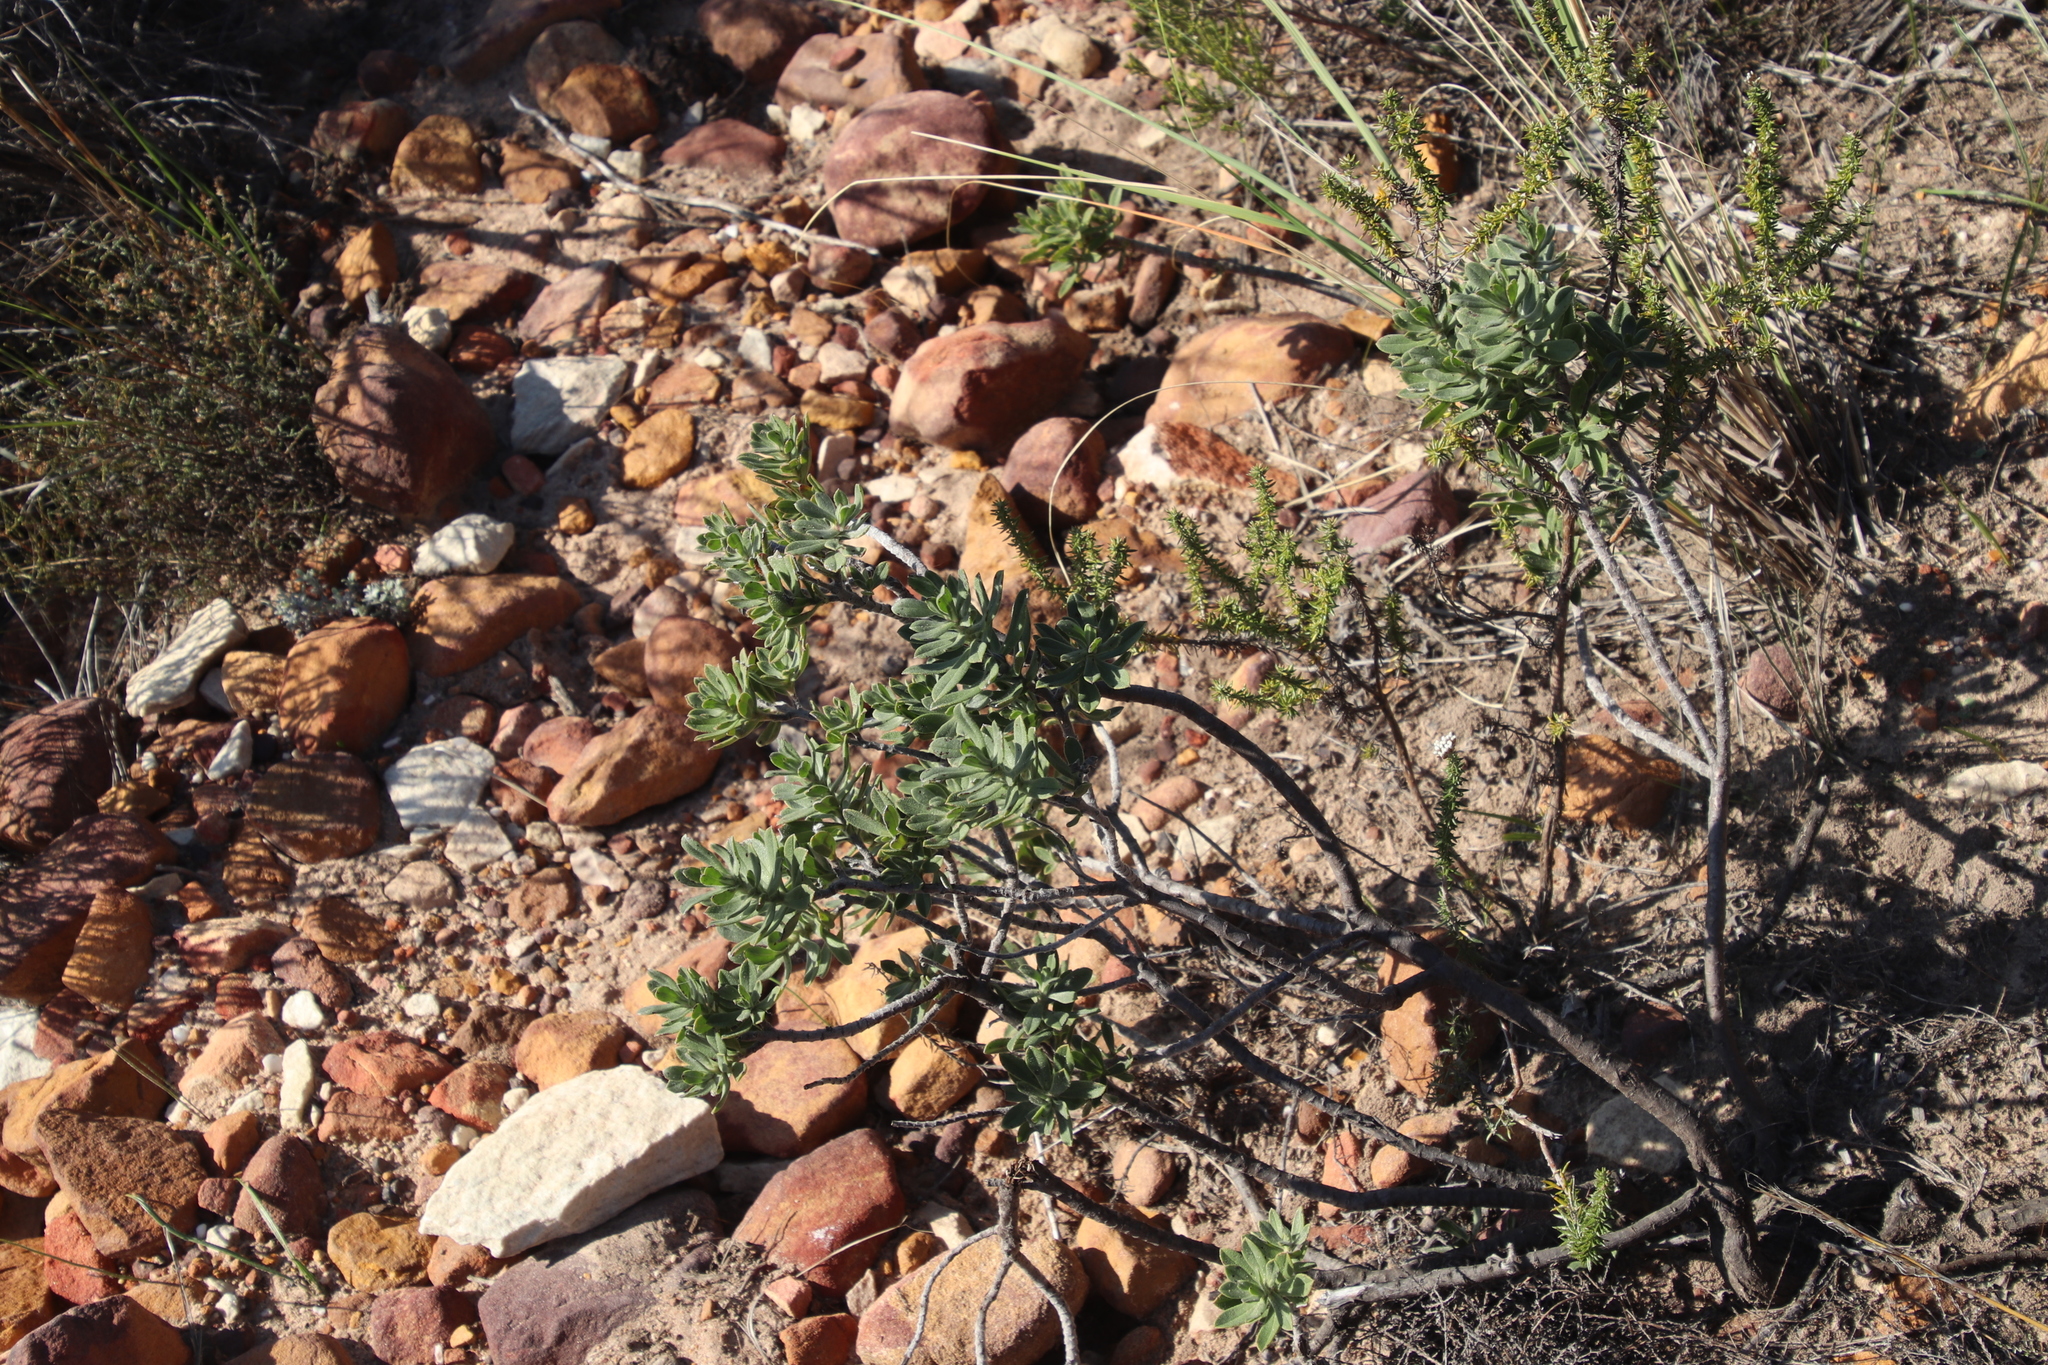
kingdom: Plantae
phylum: Tracheophyta
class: Magnoliopsida
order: Boraginales
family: Boraginaceae
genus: Lobostemon
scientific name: Lobostemon fruticosus
